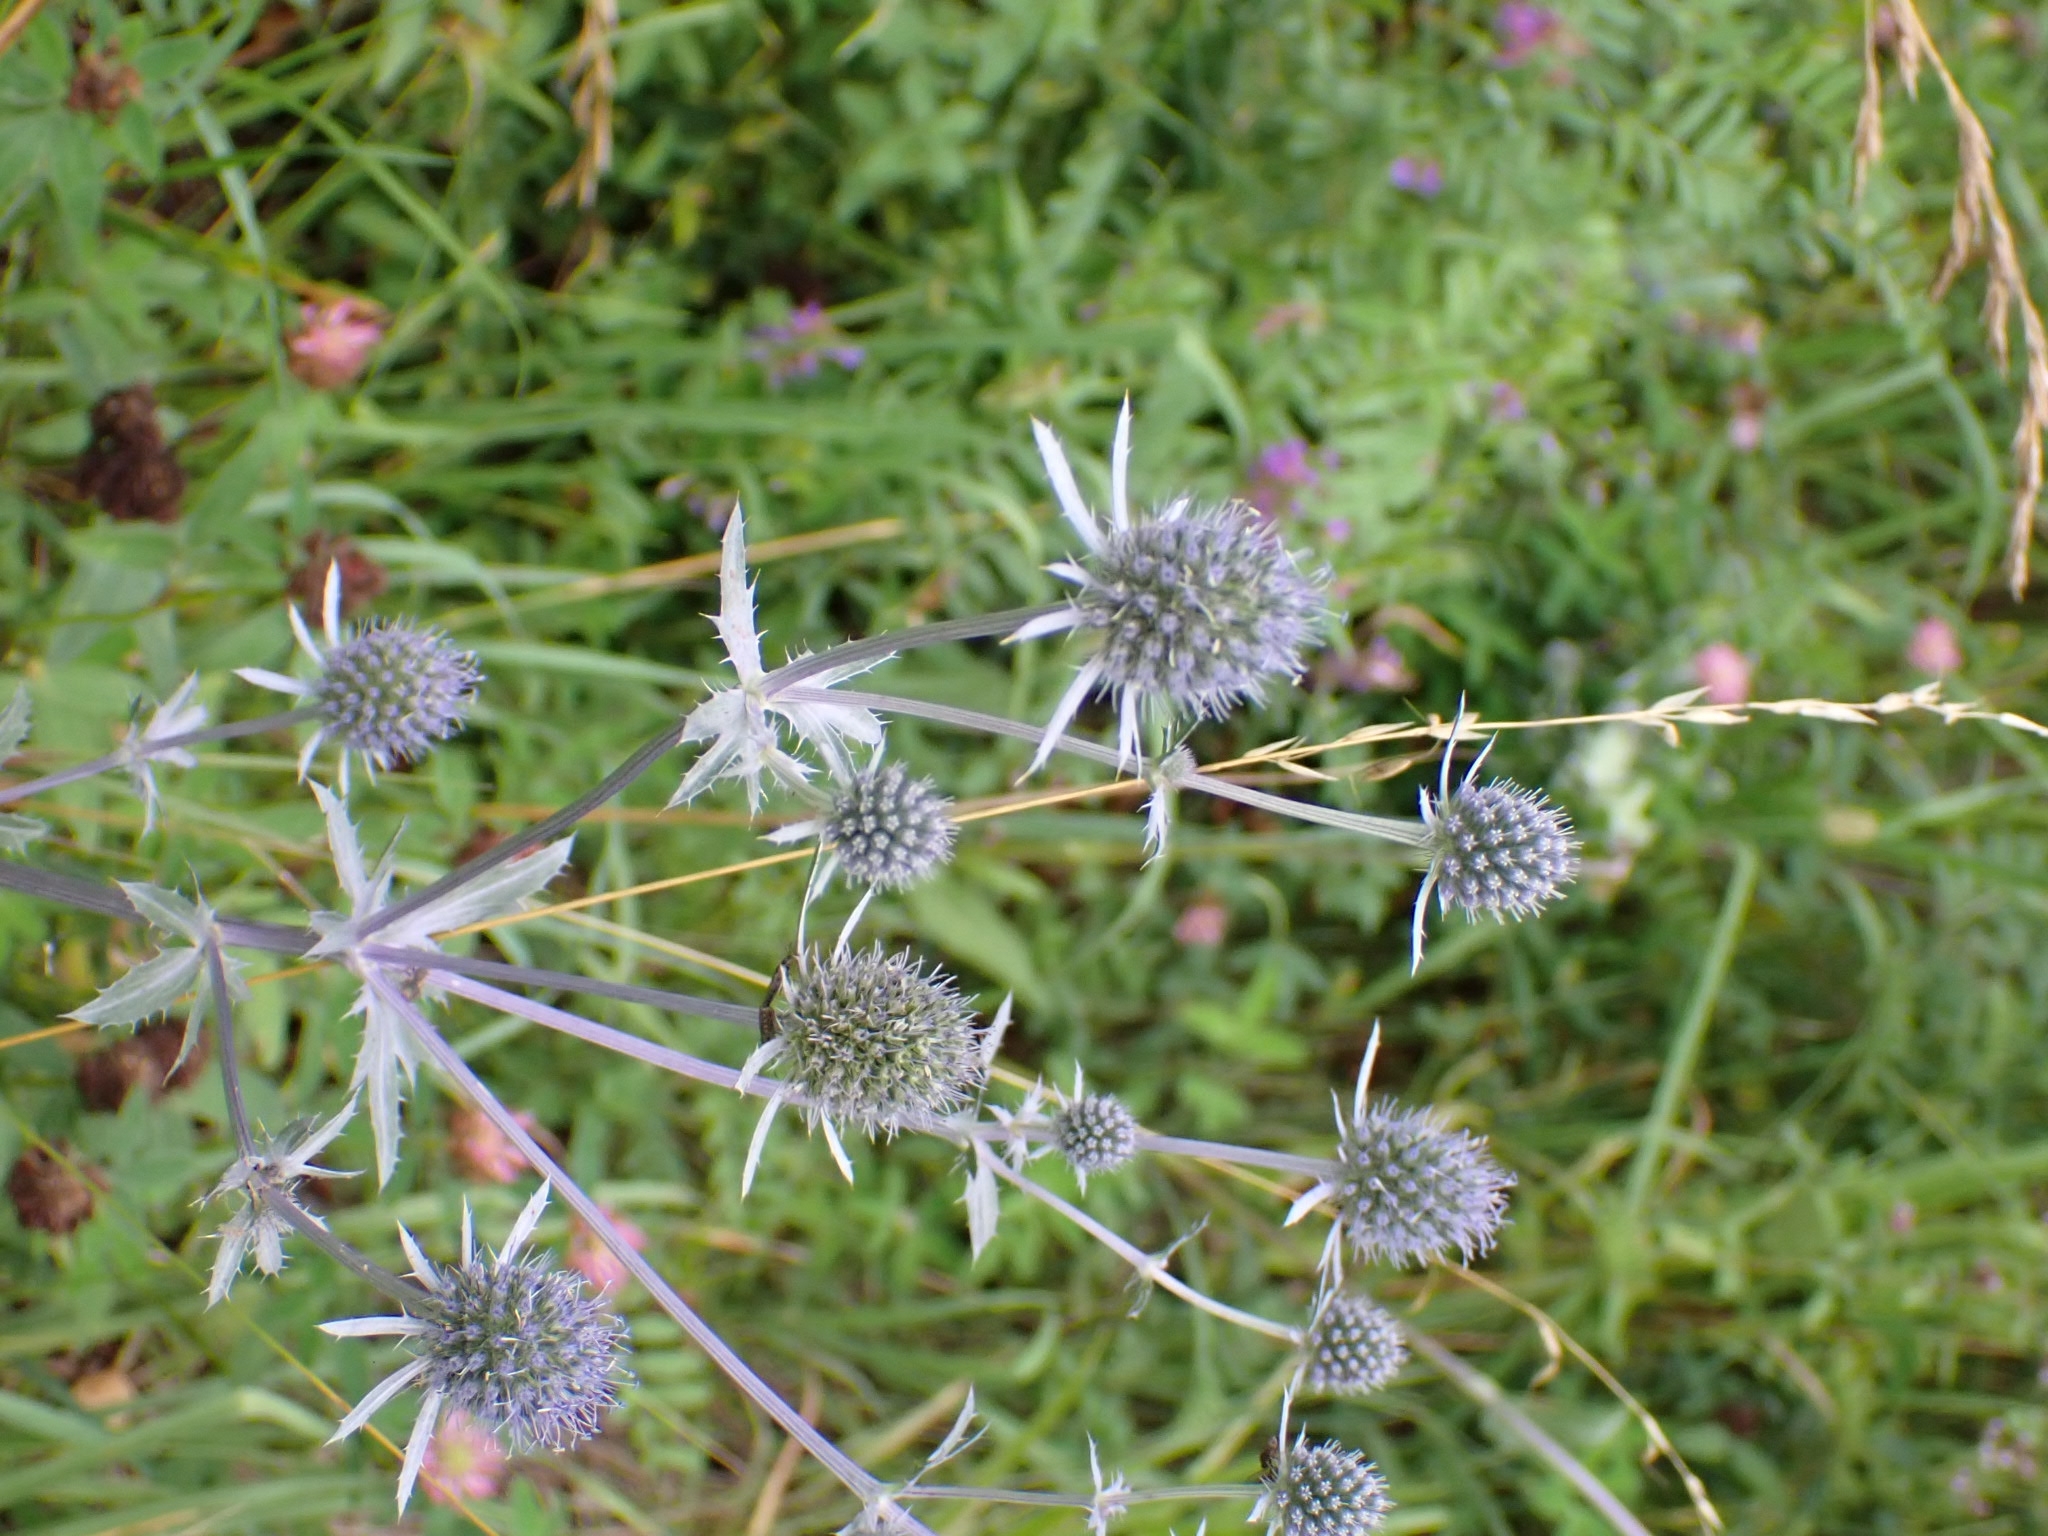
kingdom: Plantae
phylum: Tracheophyta
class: Magnoliopsida
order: Apiales
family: Apiaceae
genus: Eryngium
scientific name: Eryngium planum
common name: Blue eryngo
